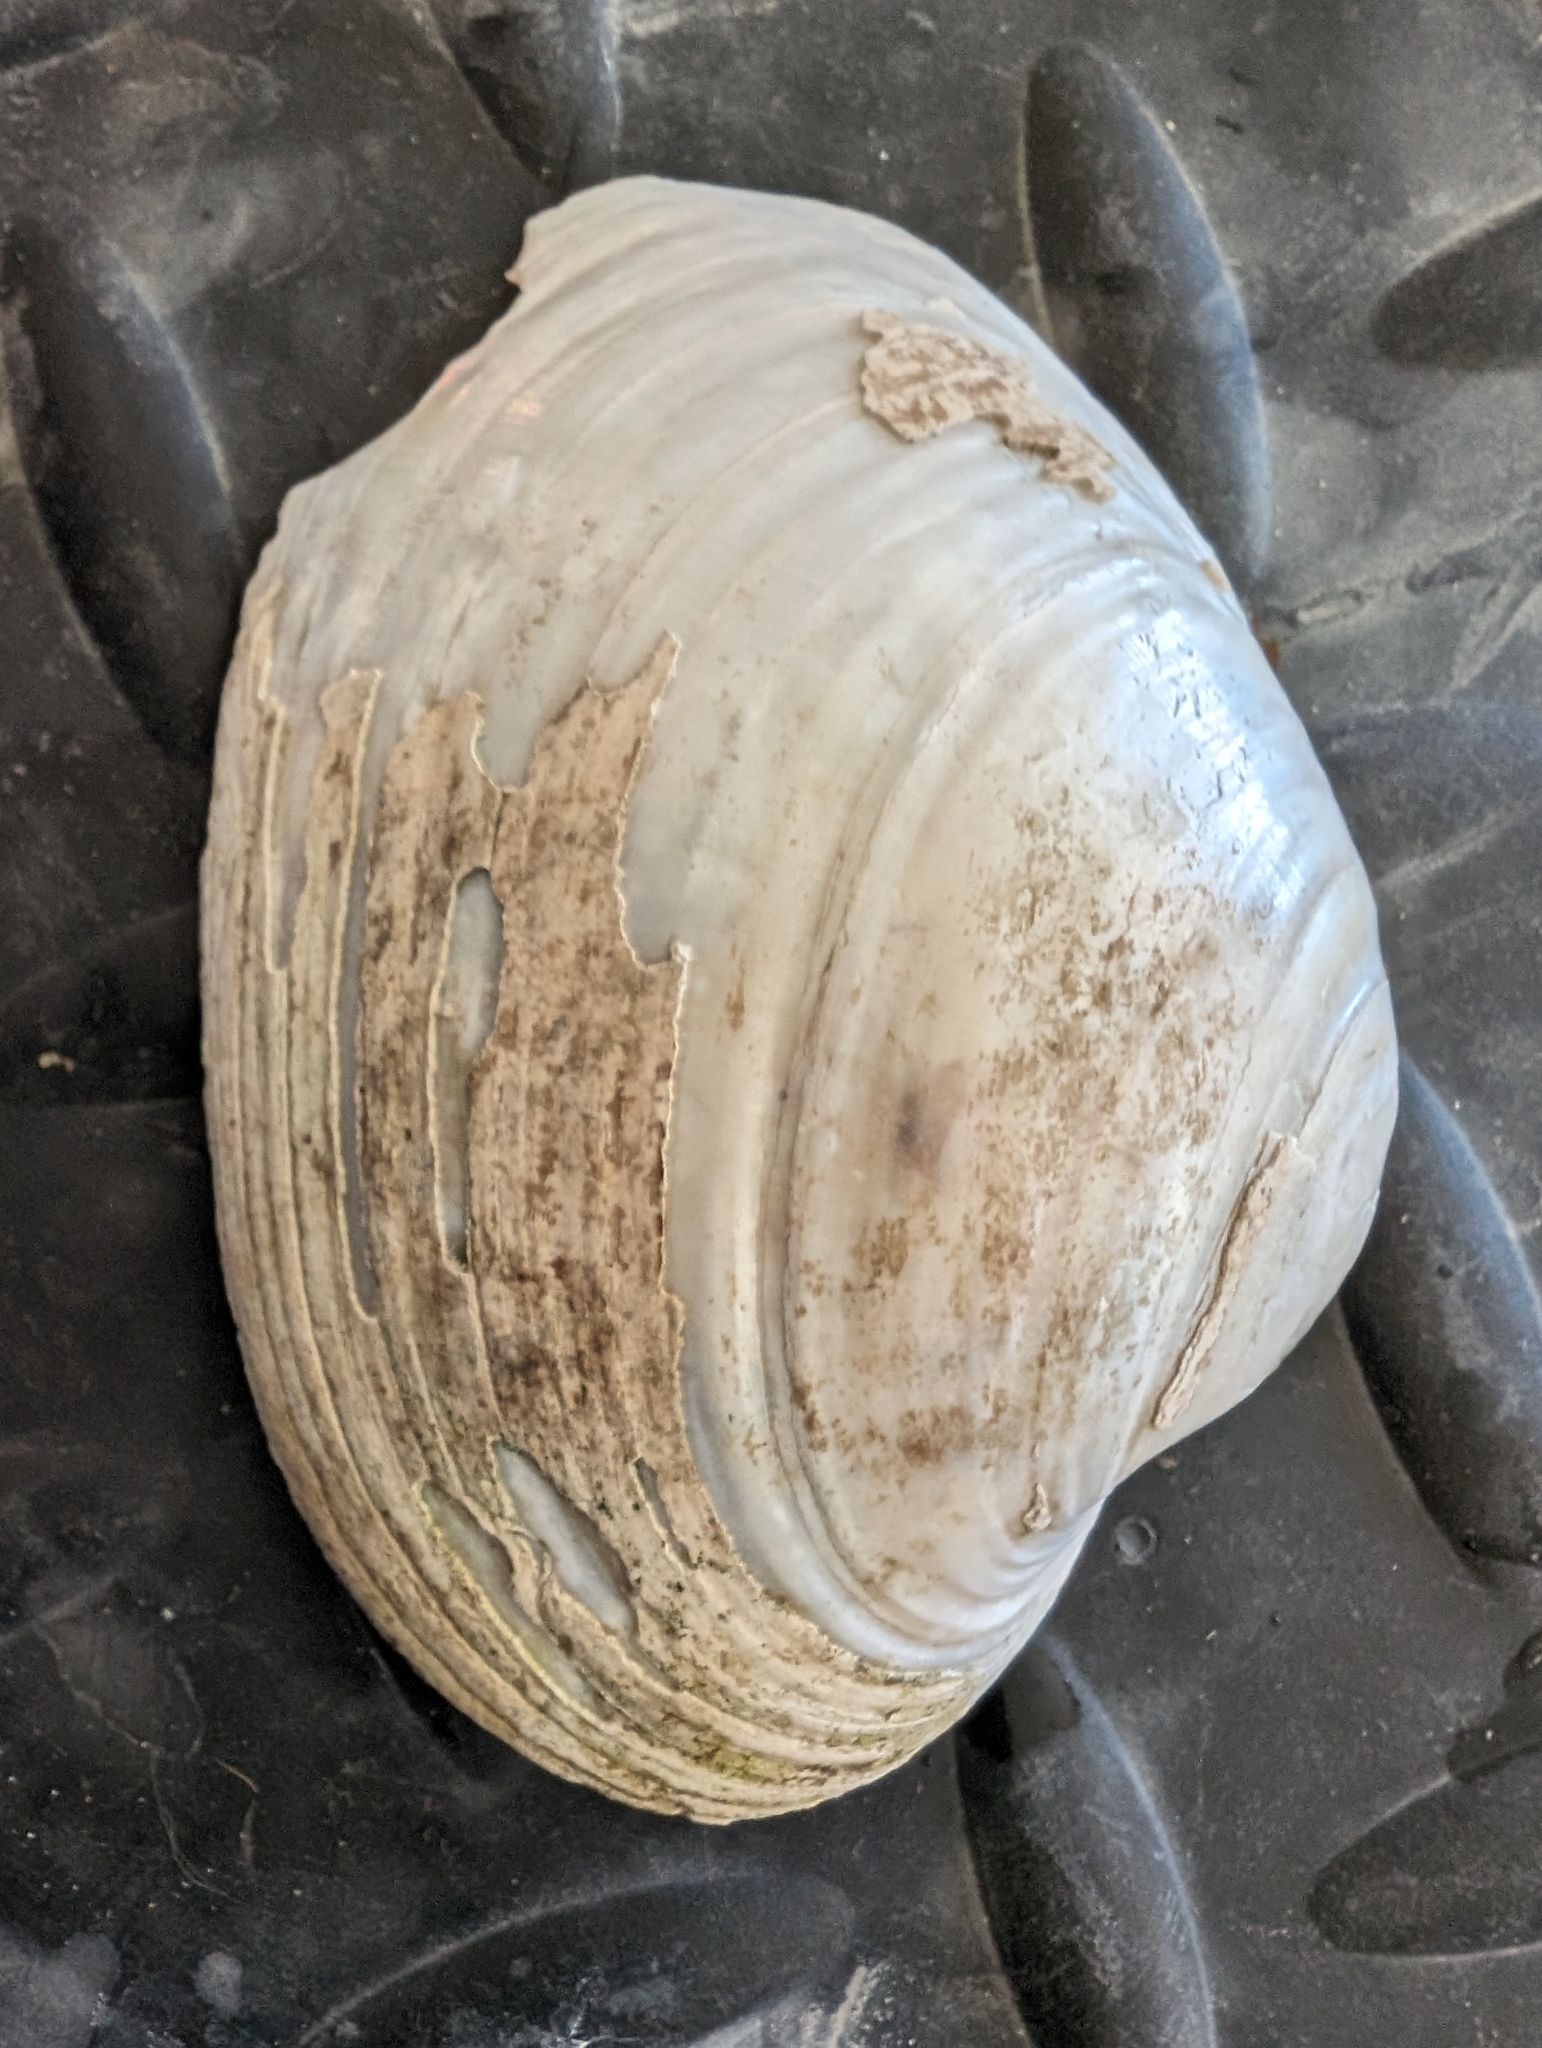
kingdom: Animalia
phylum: Mollusca
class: Bivalvia
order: Unionida
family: Unionidae
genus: Lampsilis
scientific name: Lampsilis cardium
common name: Plain pocketbook
